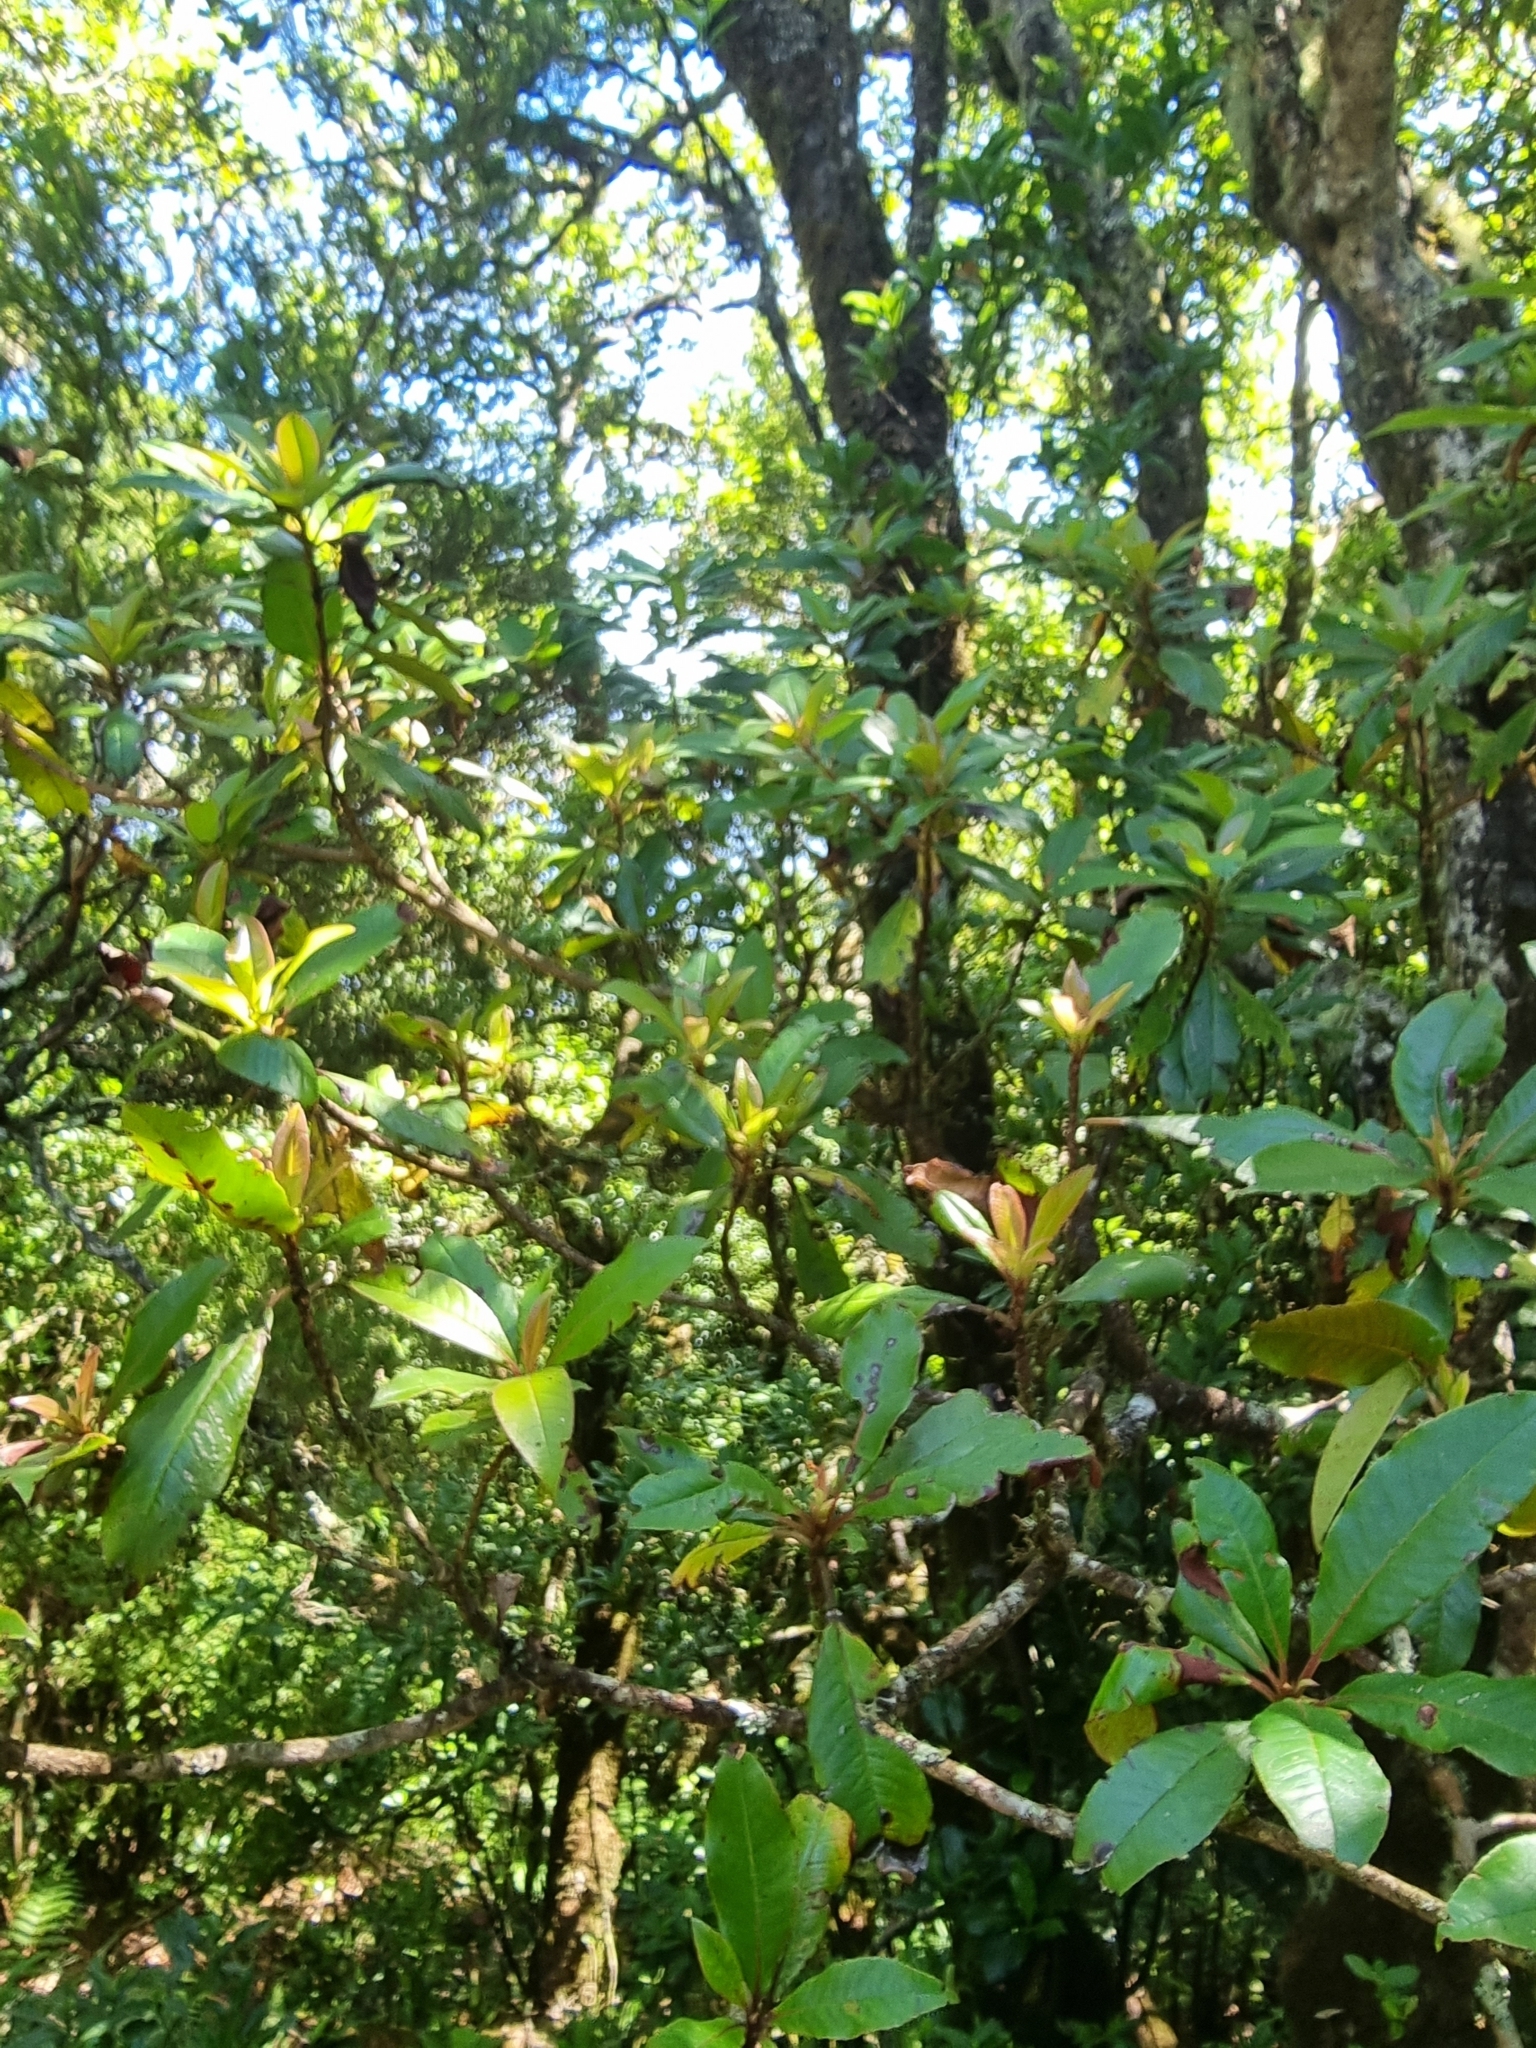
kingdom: Plantae
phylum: Tracheophyta
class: Magnoliopsida
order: Ericales
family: Clethraceae
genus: Clethra
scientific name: Clethra arborea
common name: Lily-of-the-valley-tree
